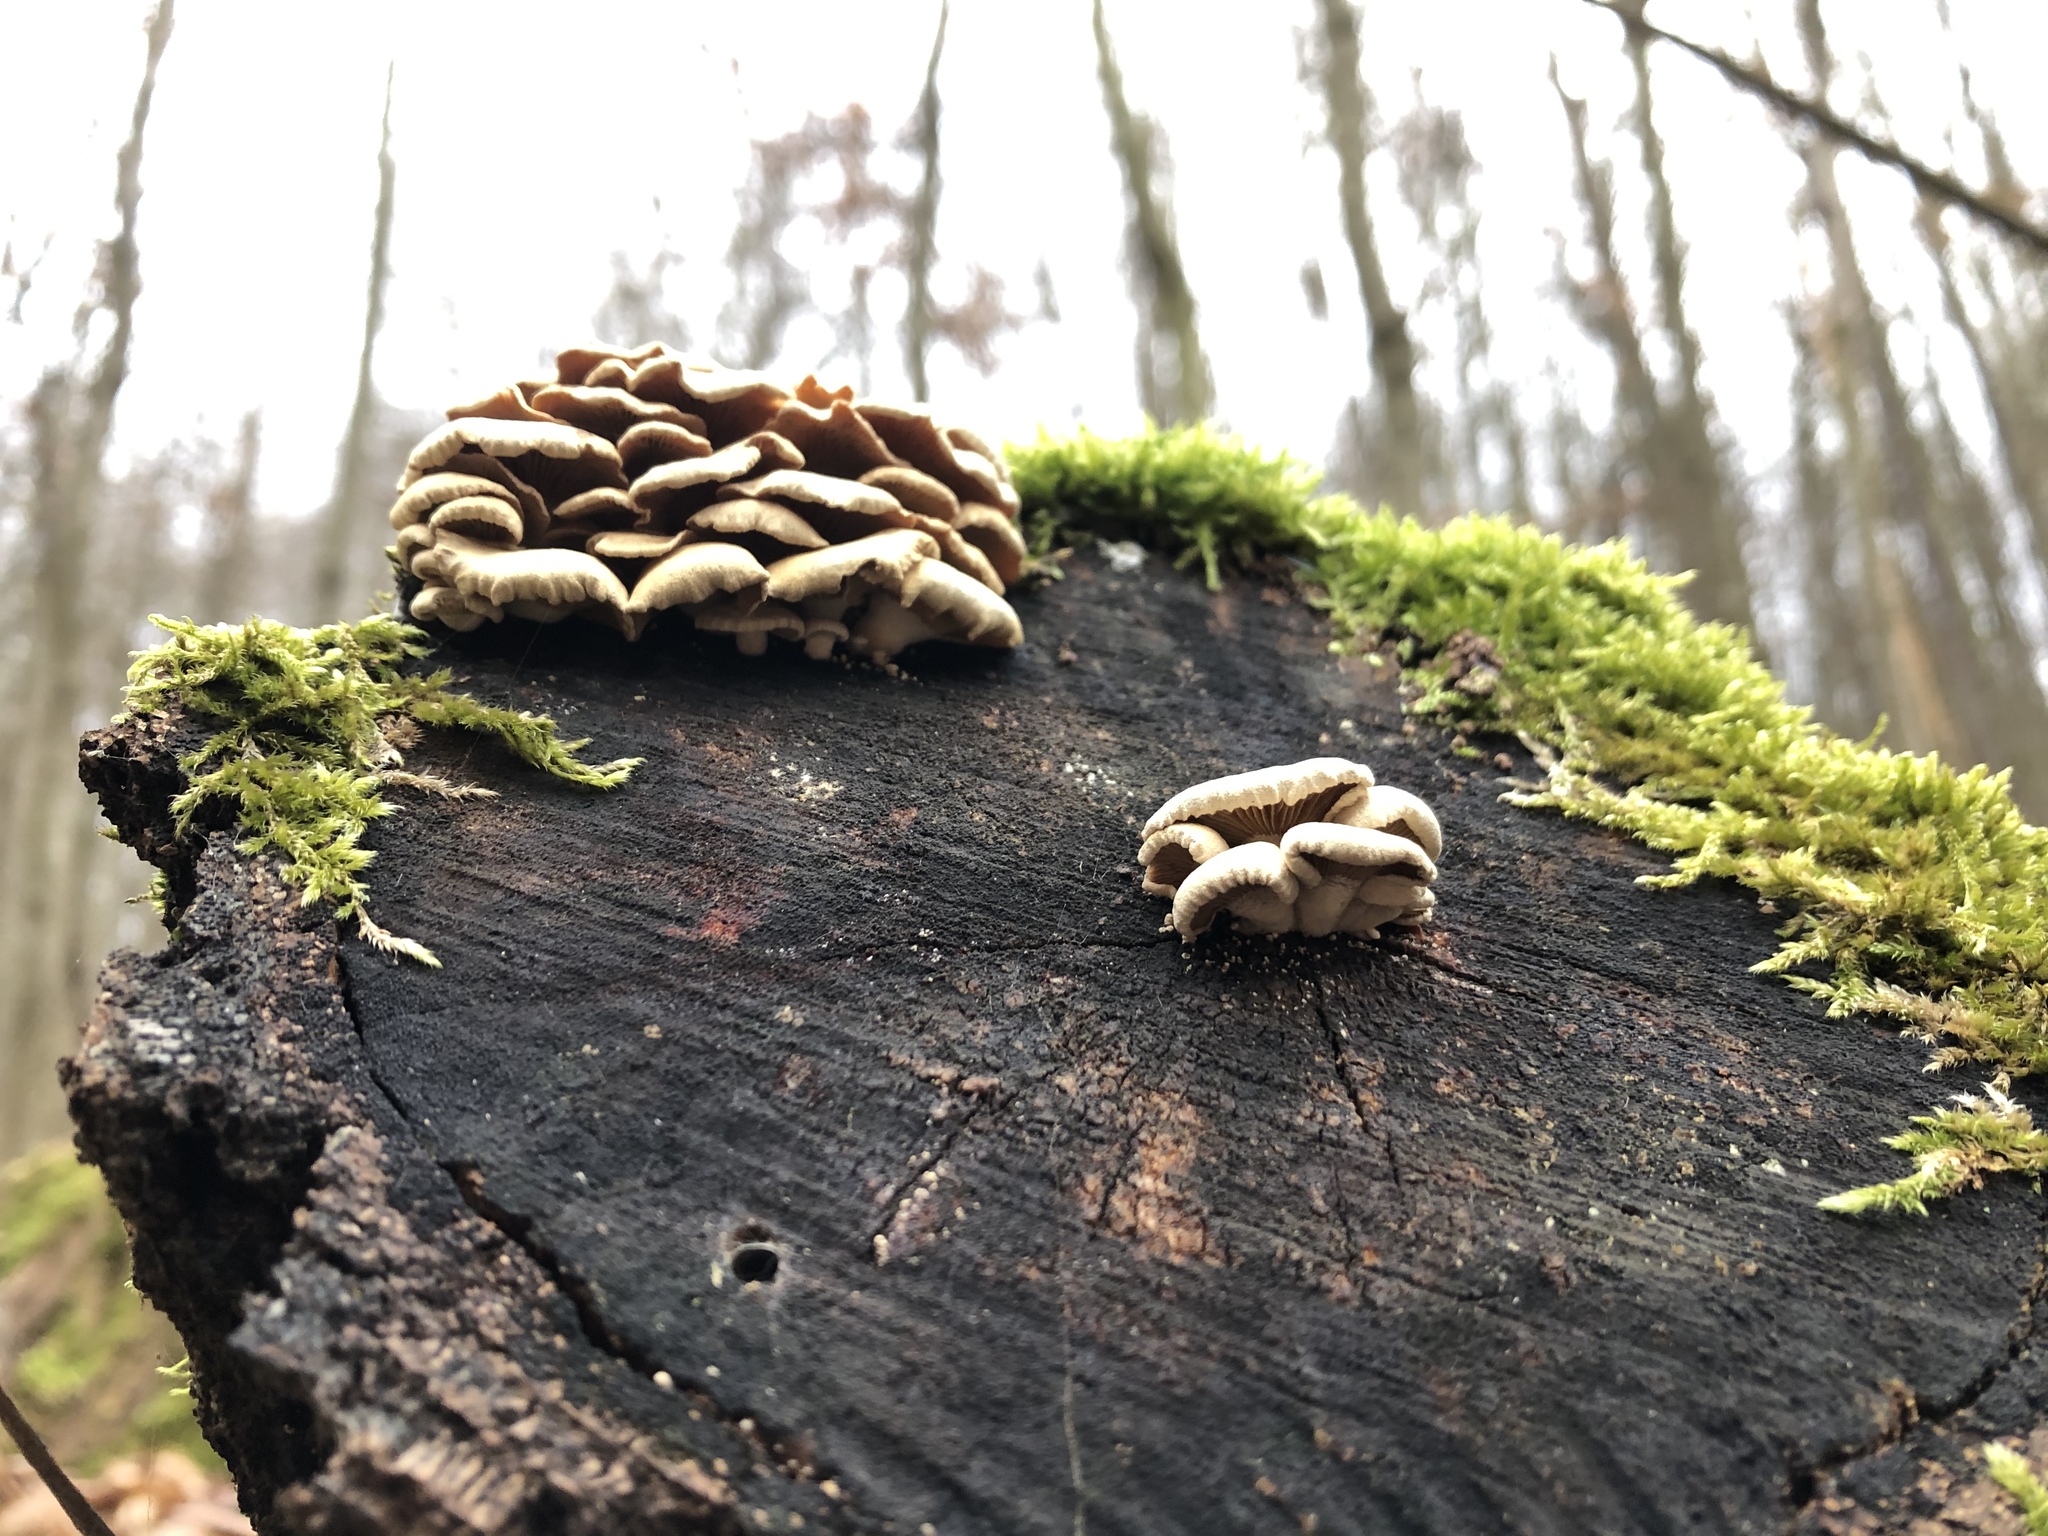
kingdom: Fungi
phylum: Basidiomycota
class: Agaricomycetes
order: Agaricales
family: Mycenaceae
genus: Panellus
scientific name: Panellus stipticus
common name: Bitter oysterling
